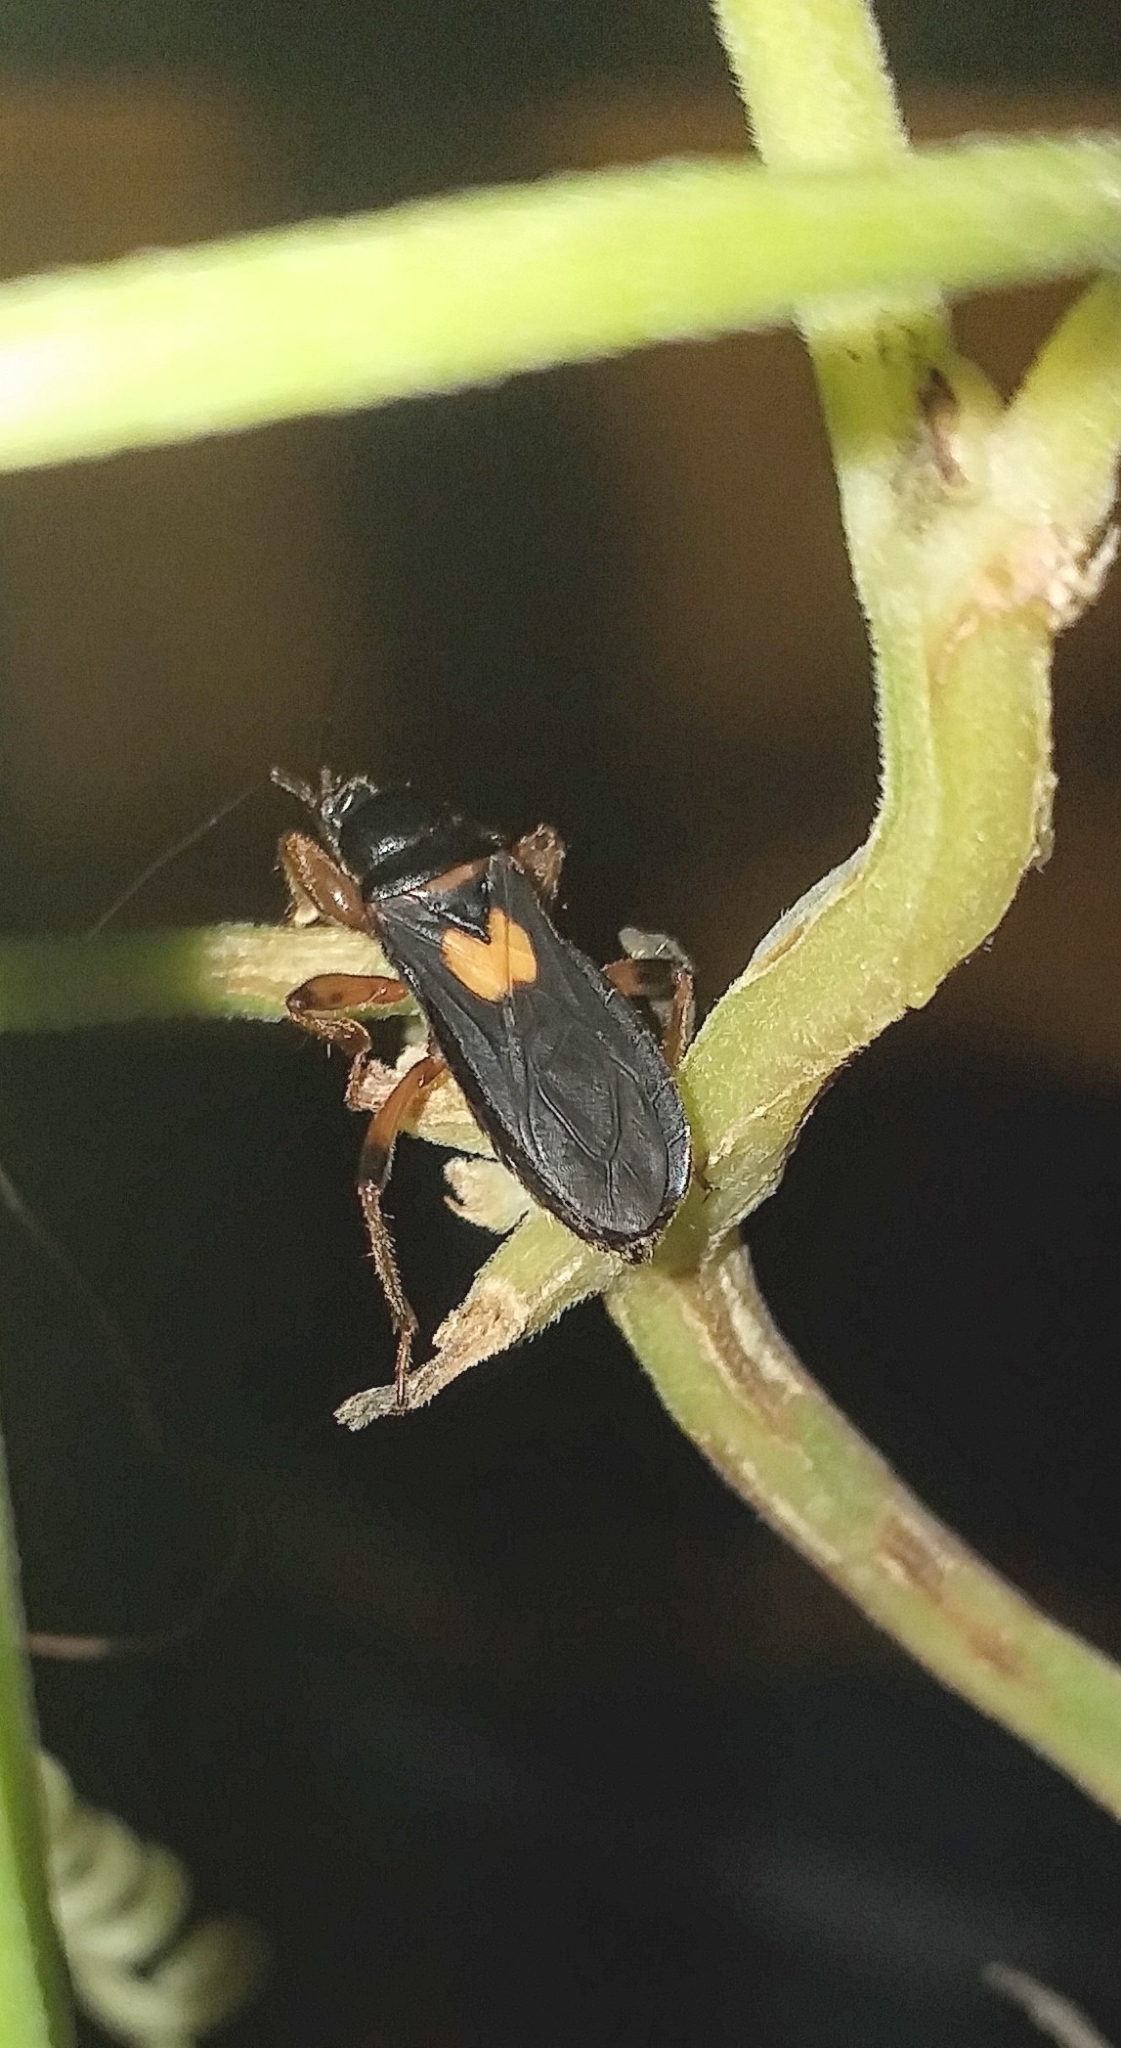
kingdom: Animalia
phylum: Arthropoda
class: Insecta
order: Hemiptera
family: Reduviidae
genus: Ectomocoris
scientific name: Ectomocoris cordiger
